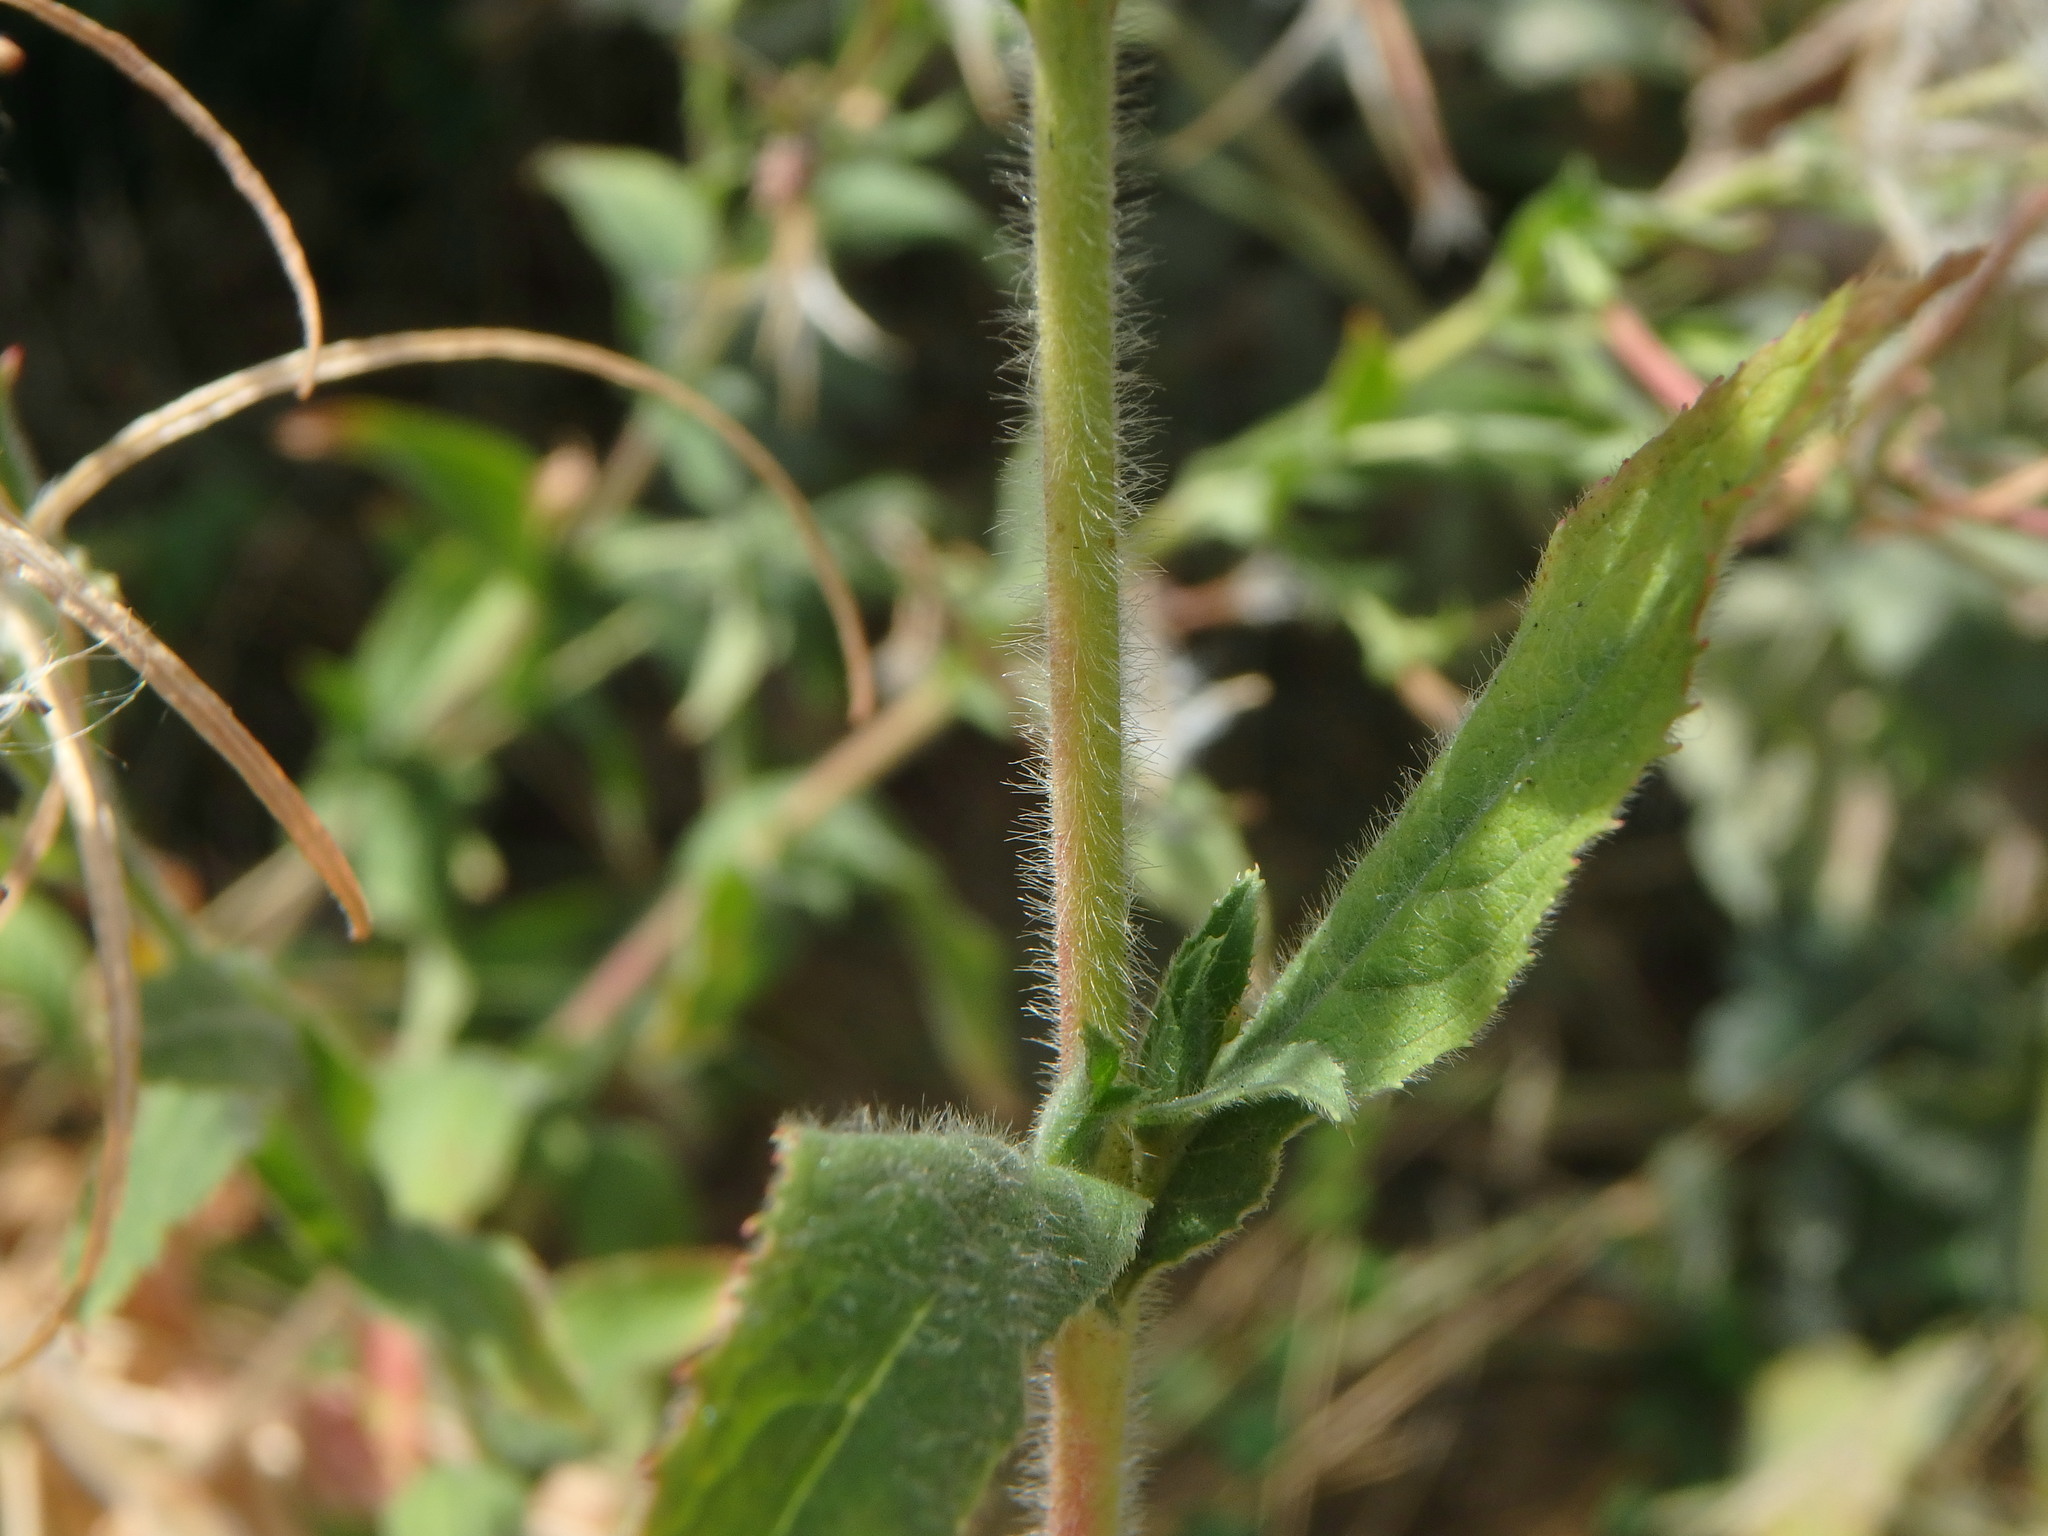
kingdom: Plantae
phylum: Tracheophyta
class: Magnoliopsida
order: Myrtales
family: Onagraceae
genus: Epilobium
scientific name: Epilobium hirsutum
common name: Great willowherb
